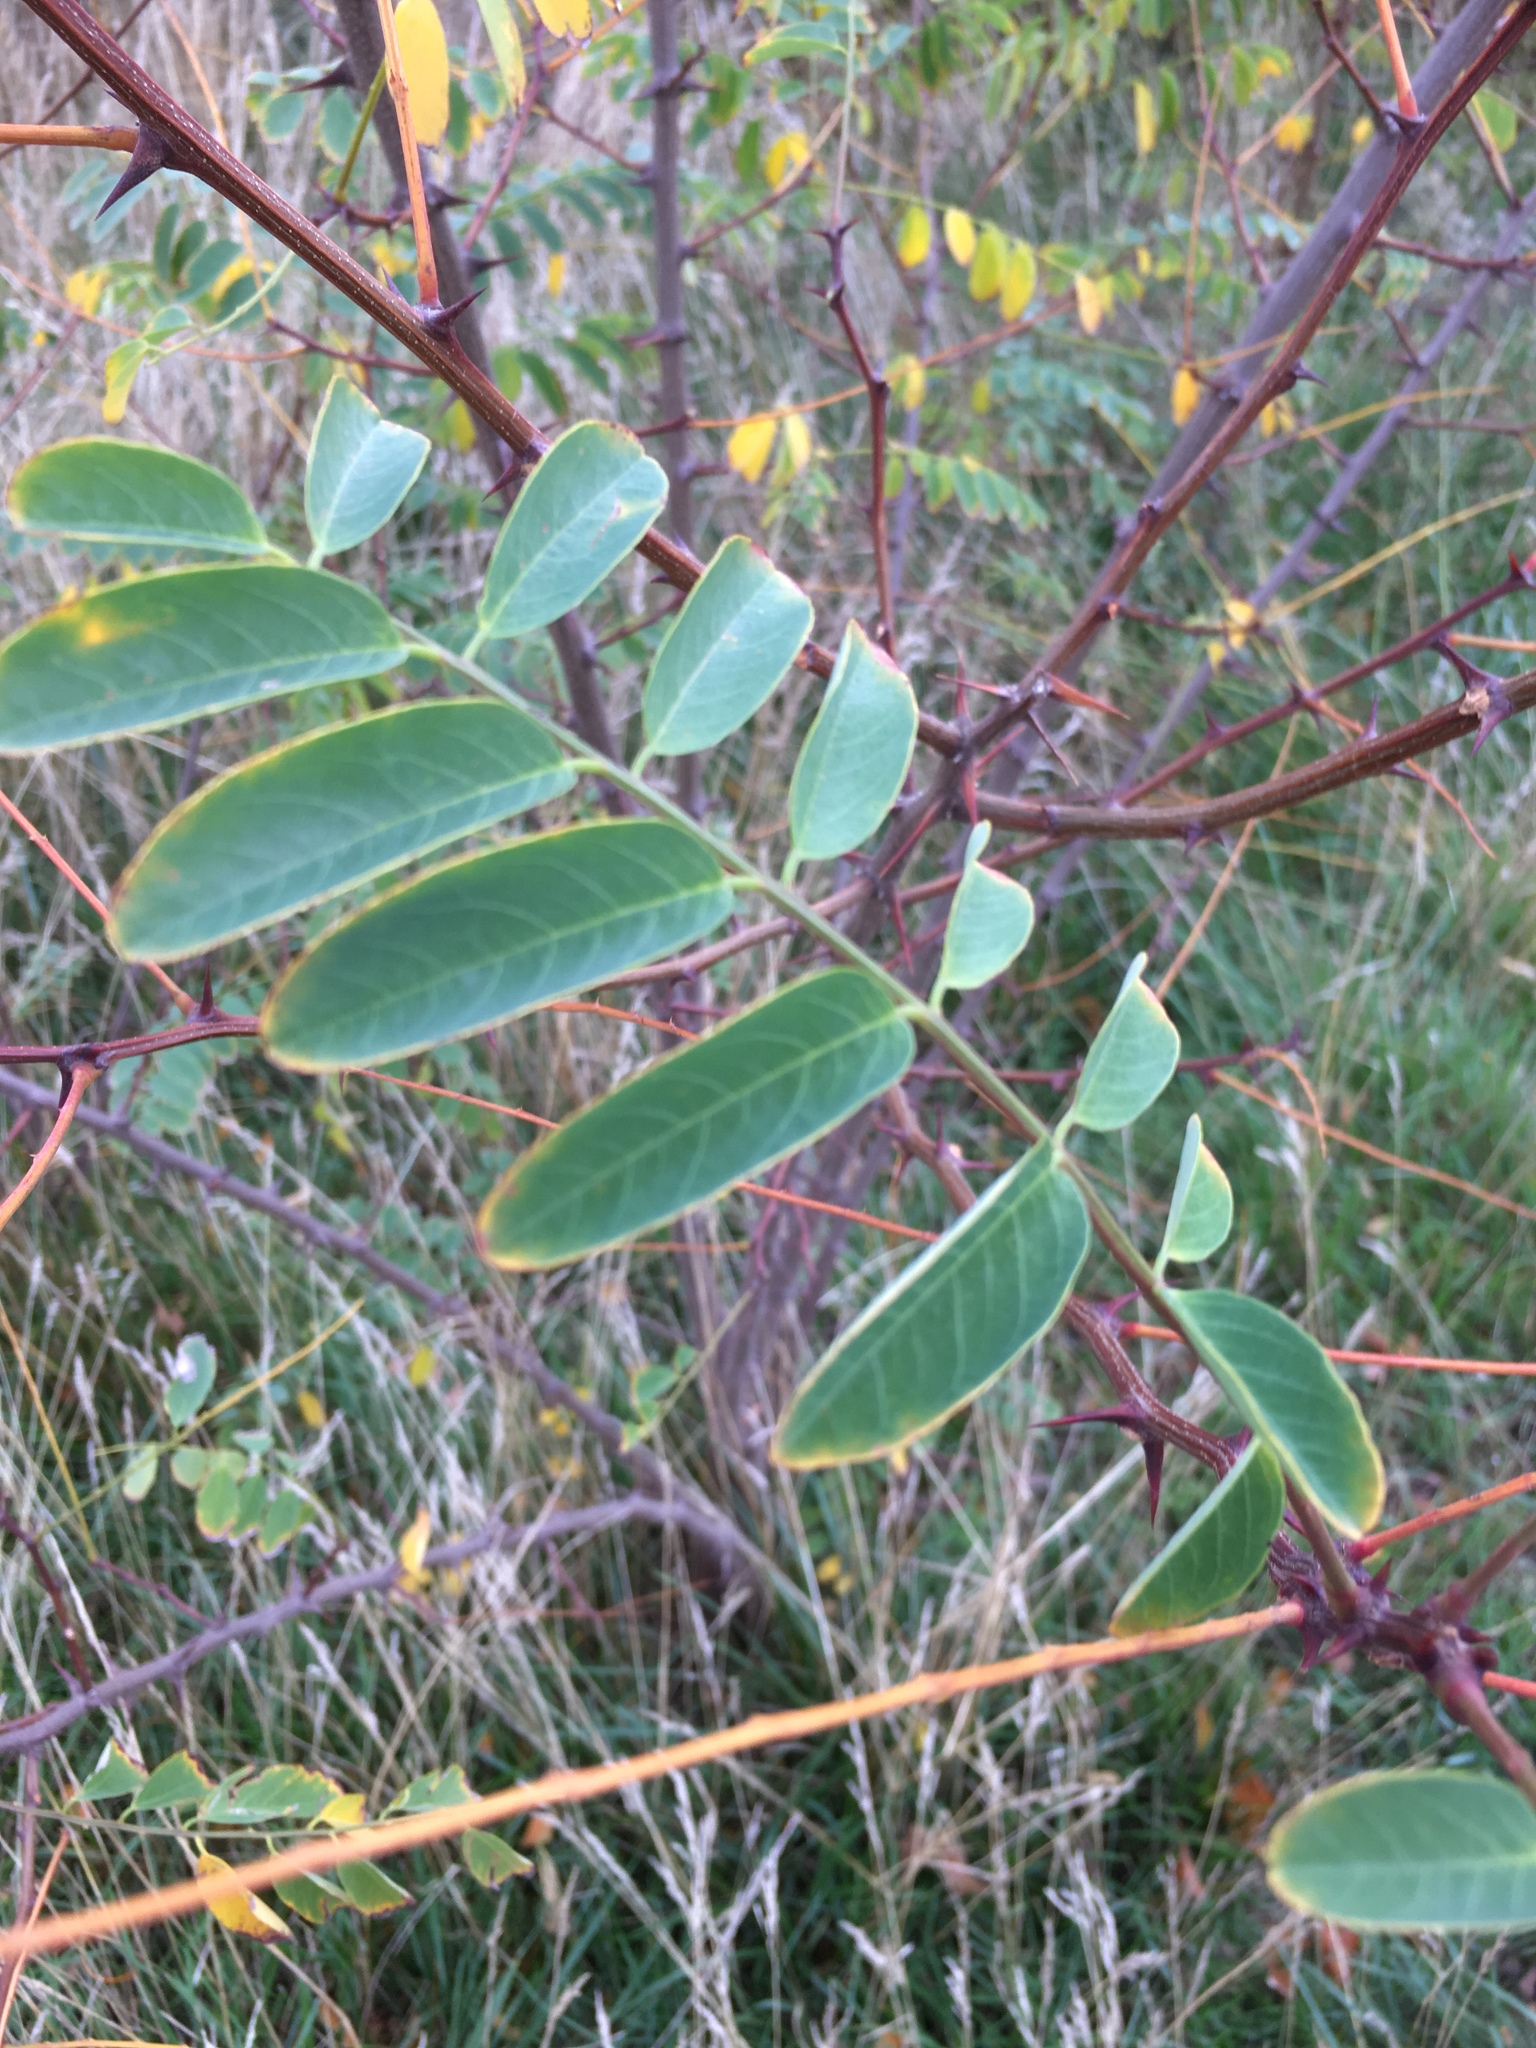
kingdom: Plantae
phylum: Tracheophyta
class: Magnoliopsida
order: Fabales
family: Fabaceae
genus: Robinia
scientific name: Robinia pseudoacacia
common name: Black locust
